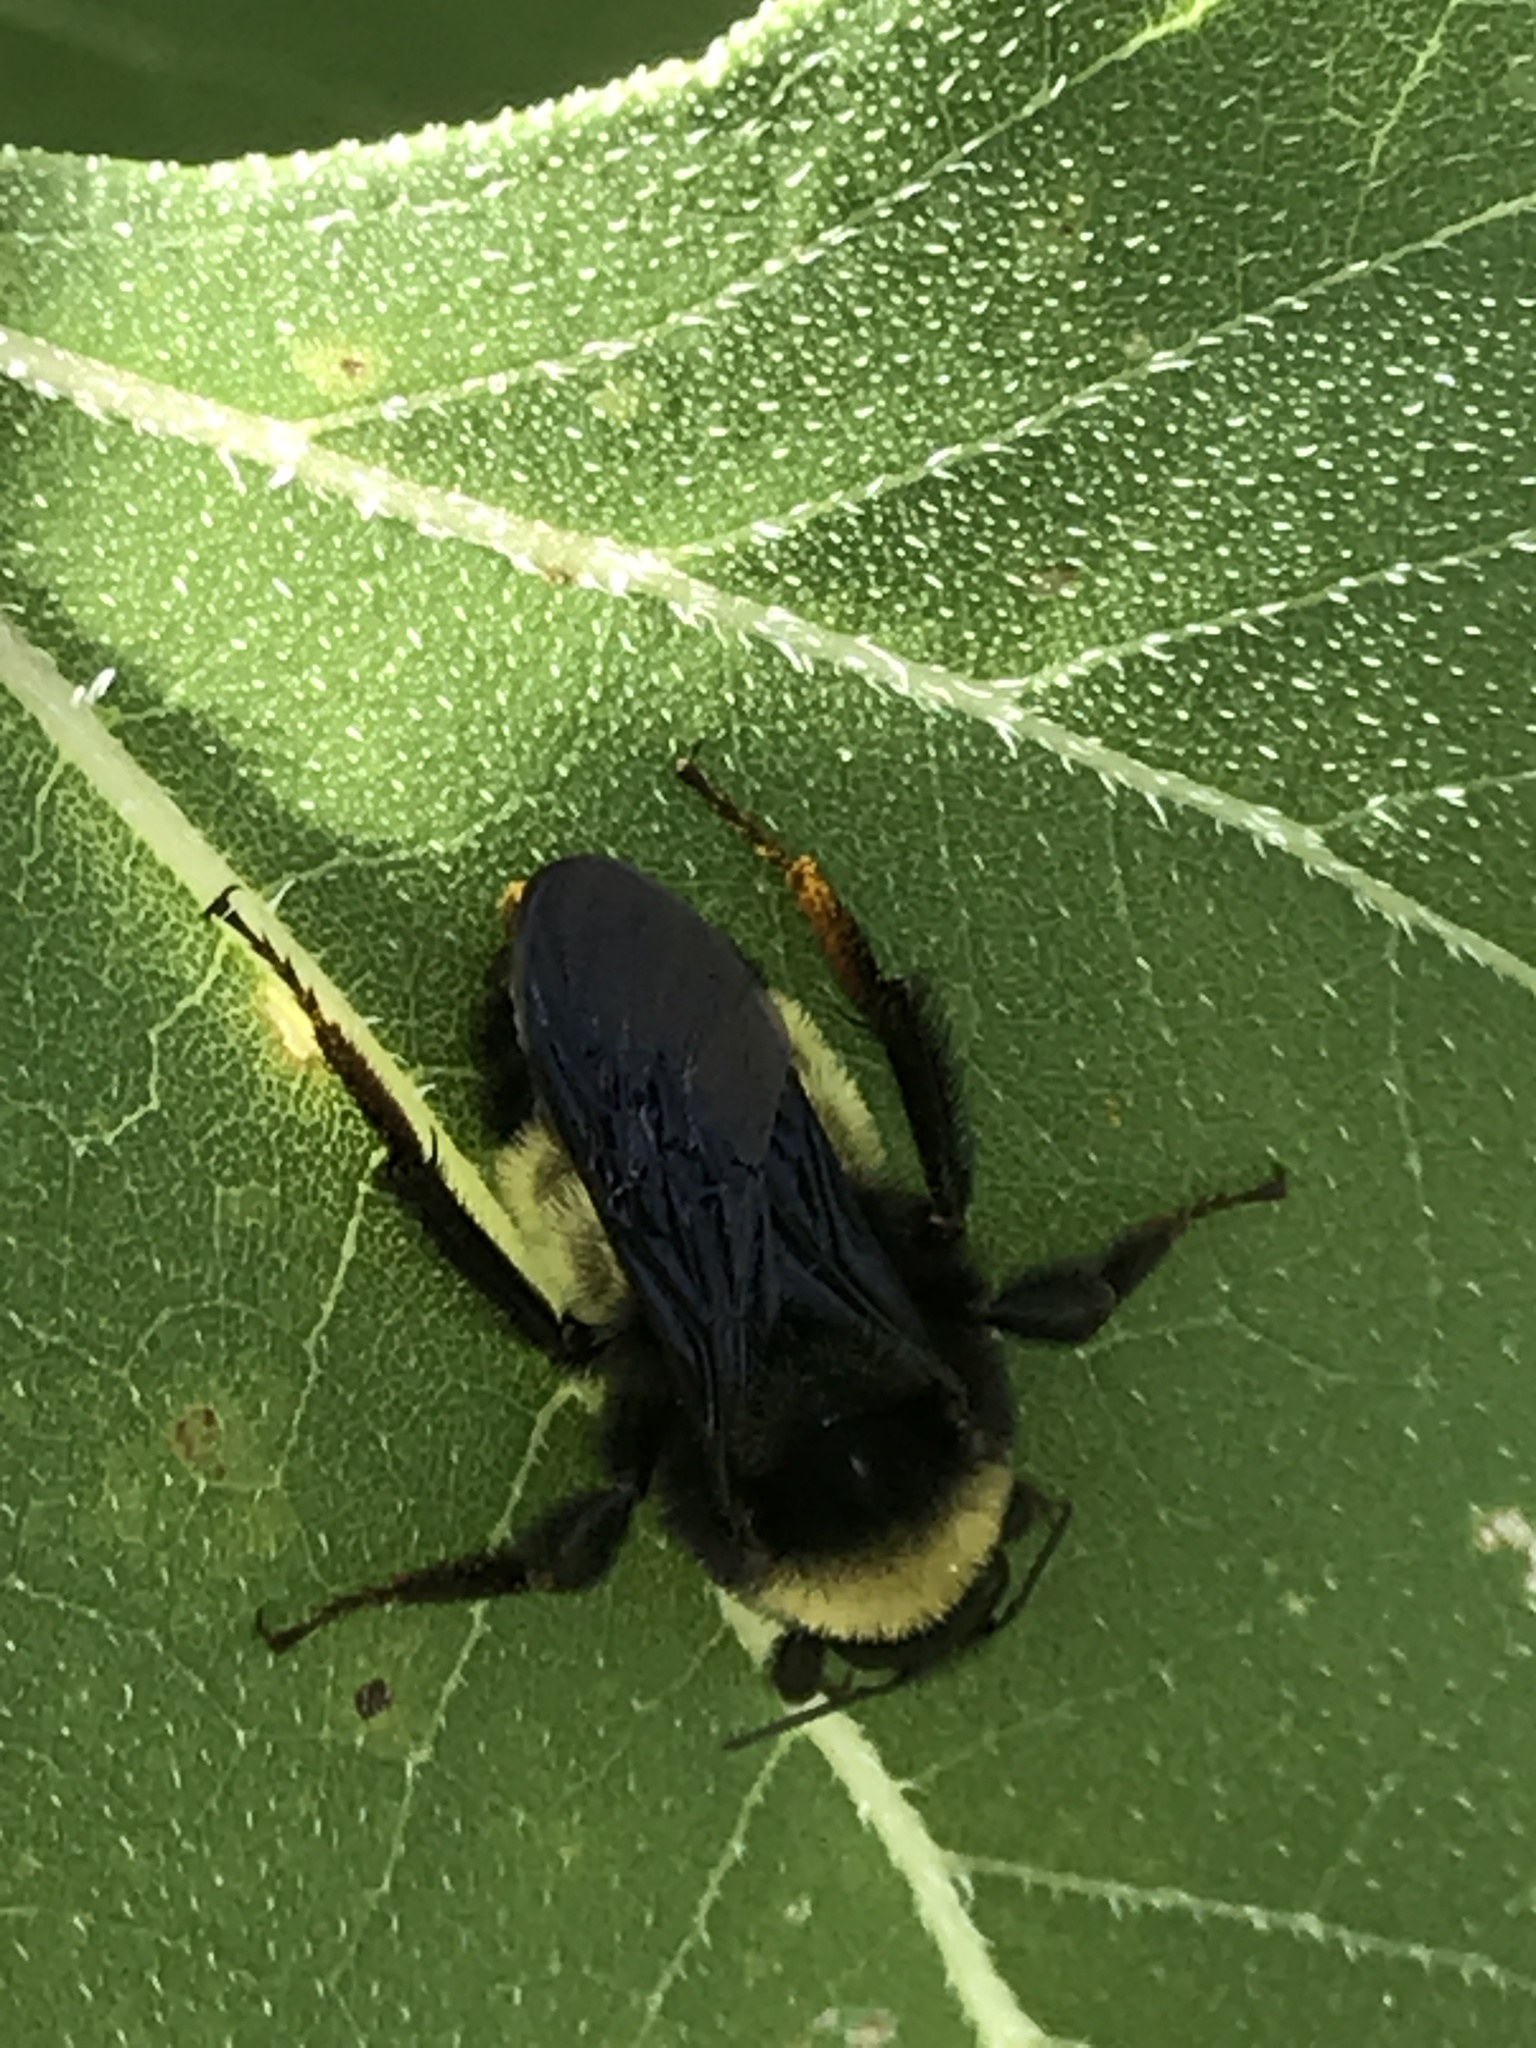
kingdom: Animalia
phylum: Arthropoda
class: Insecta
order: Hymenoptera
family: Apidae
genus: Bombus
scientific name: Bombus pensylvanicus
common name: Bumble bee
